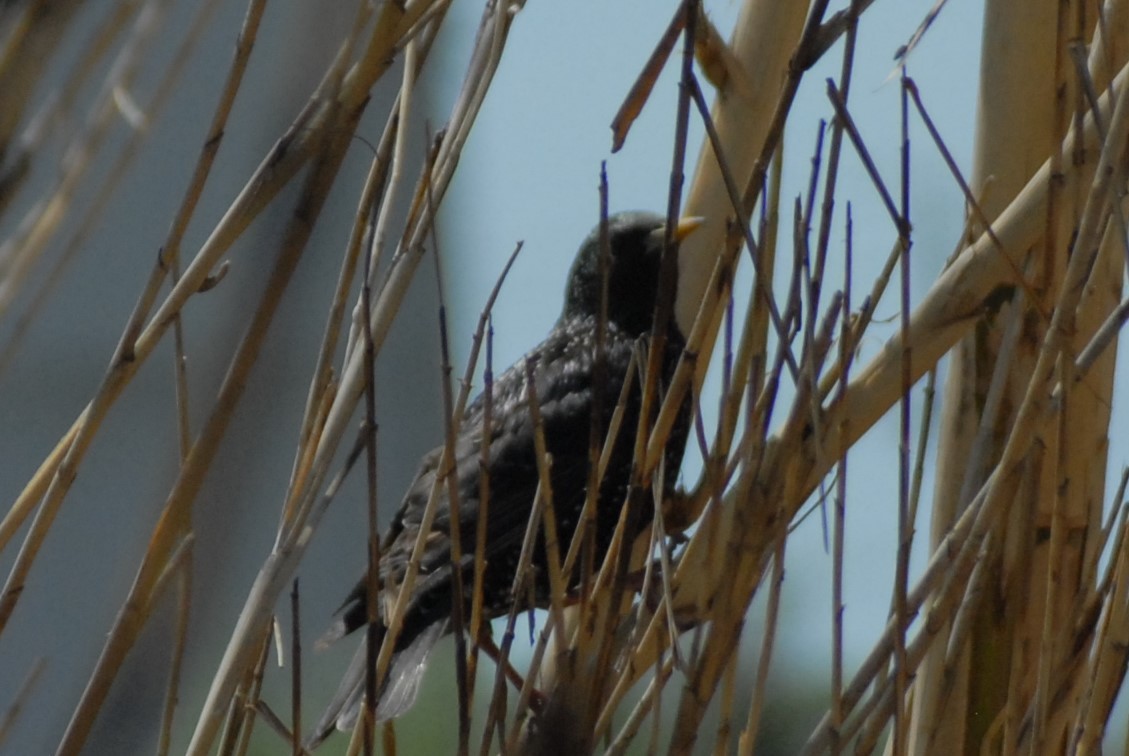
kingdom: Animalia
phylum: Chordata
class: Aves
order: Passeriformes
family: Sturnidae
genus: Sturnus
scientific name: Sturnus vulgaris
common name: Common starling
